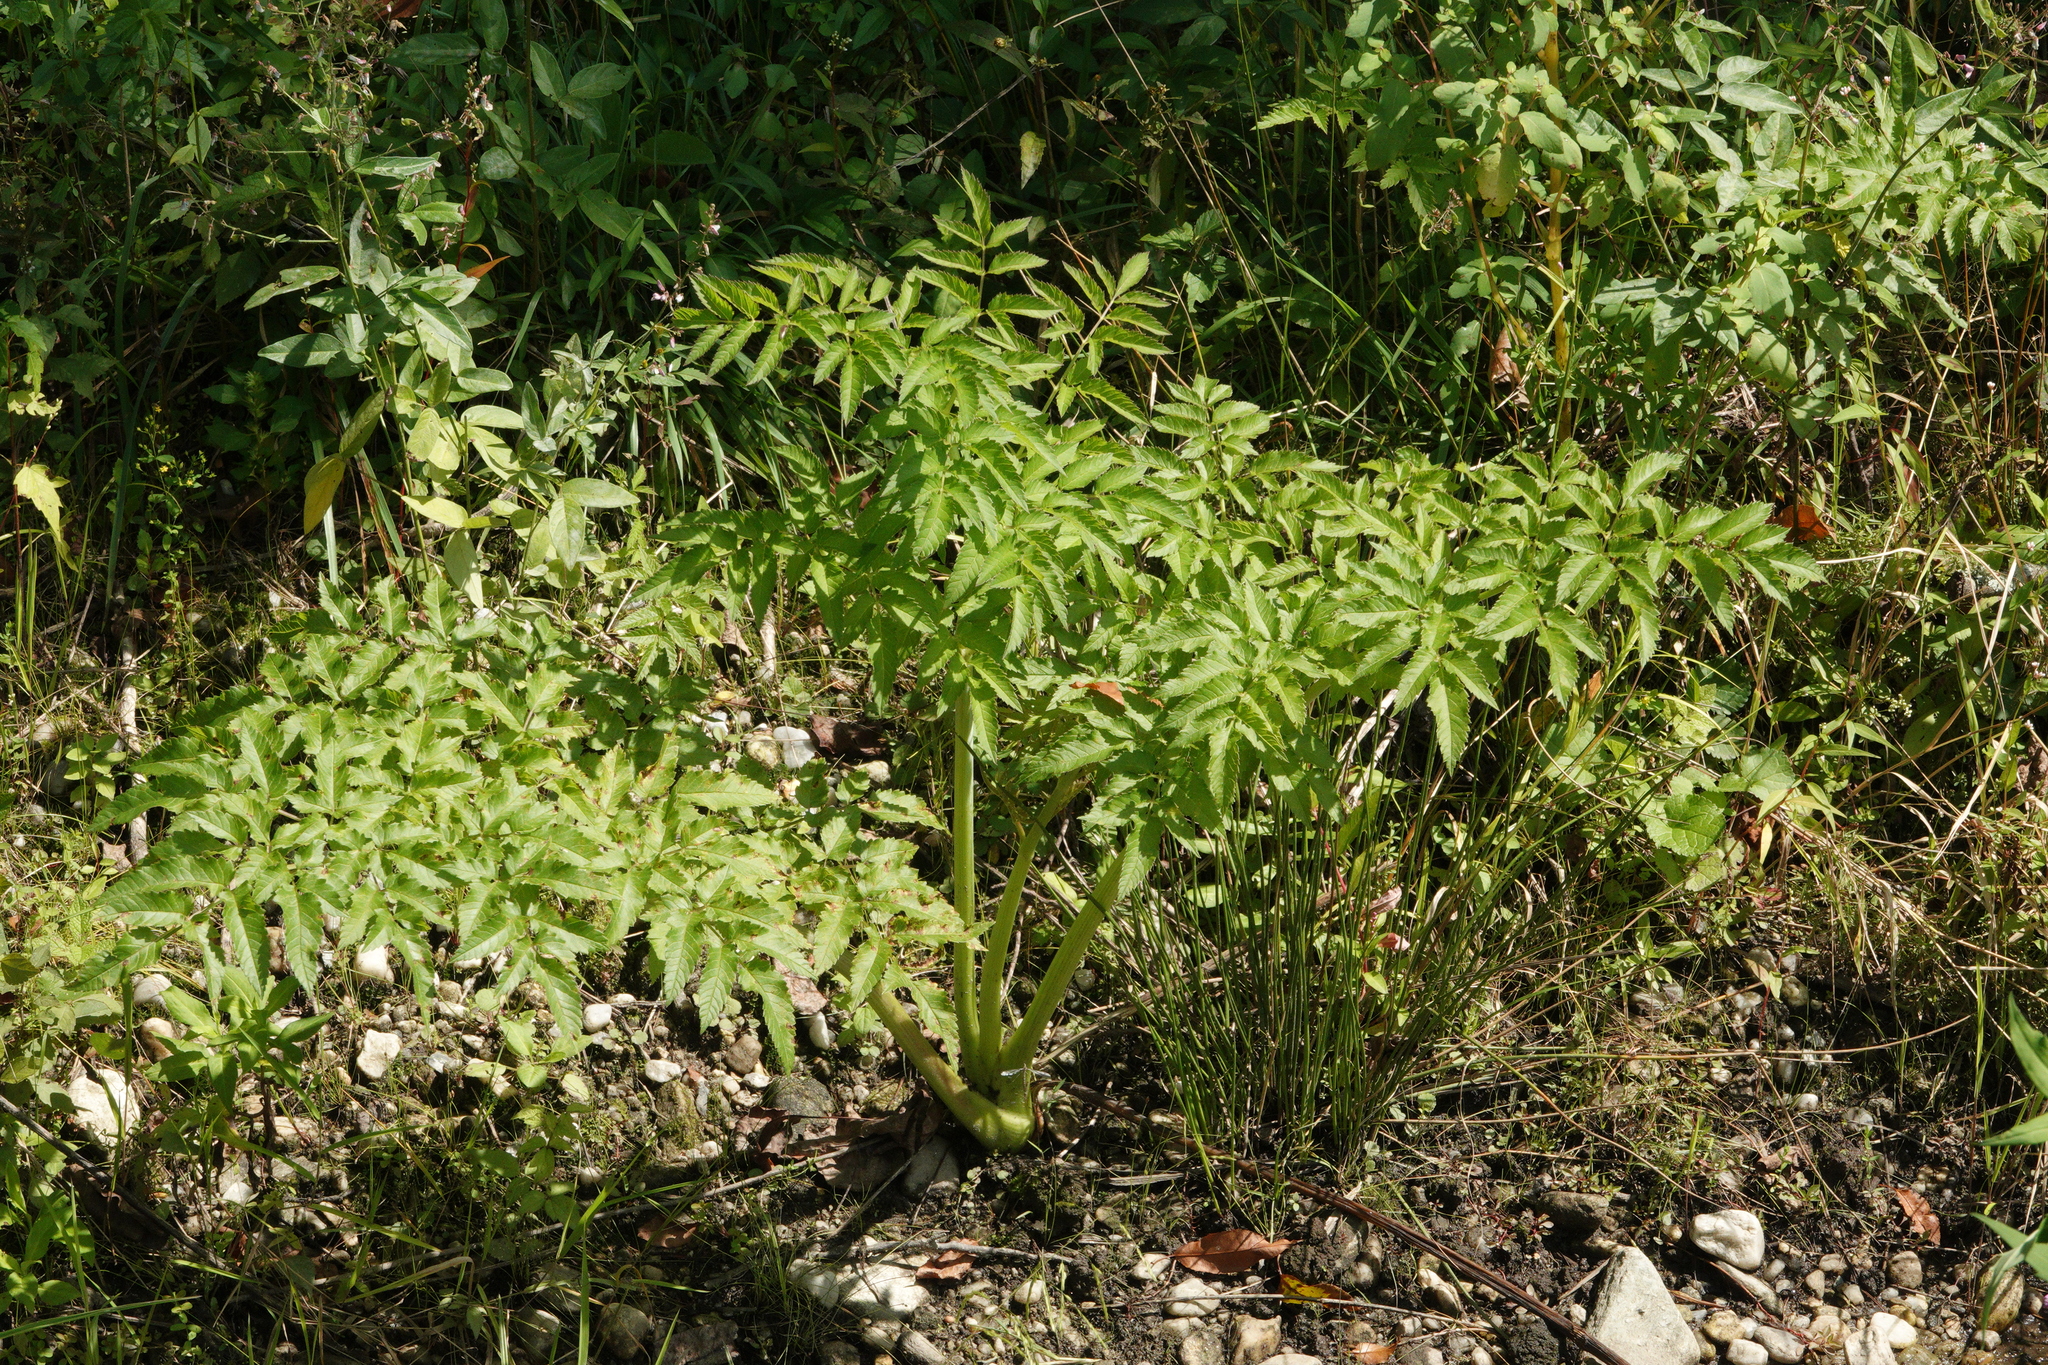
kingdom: Plantae
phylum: Tracheophyta
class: Magnoliopsida
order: Apiales
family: Apiaceae
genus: Cicuta
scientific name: Cicuta maculata
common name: Spotted cowbane
